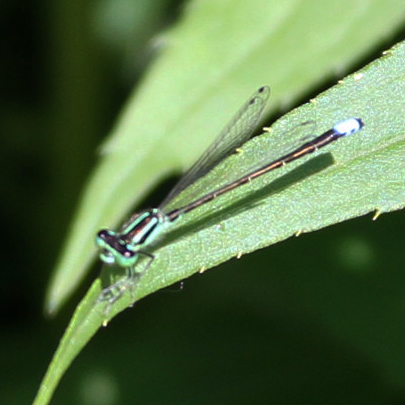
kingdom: Animalia
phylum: Arthropoda
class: Insecta
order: Odonata
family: Coenagrionidae
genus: Ischnura
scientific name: Ischnura verticalis
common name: Eastern forktail
